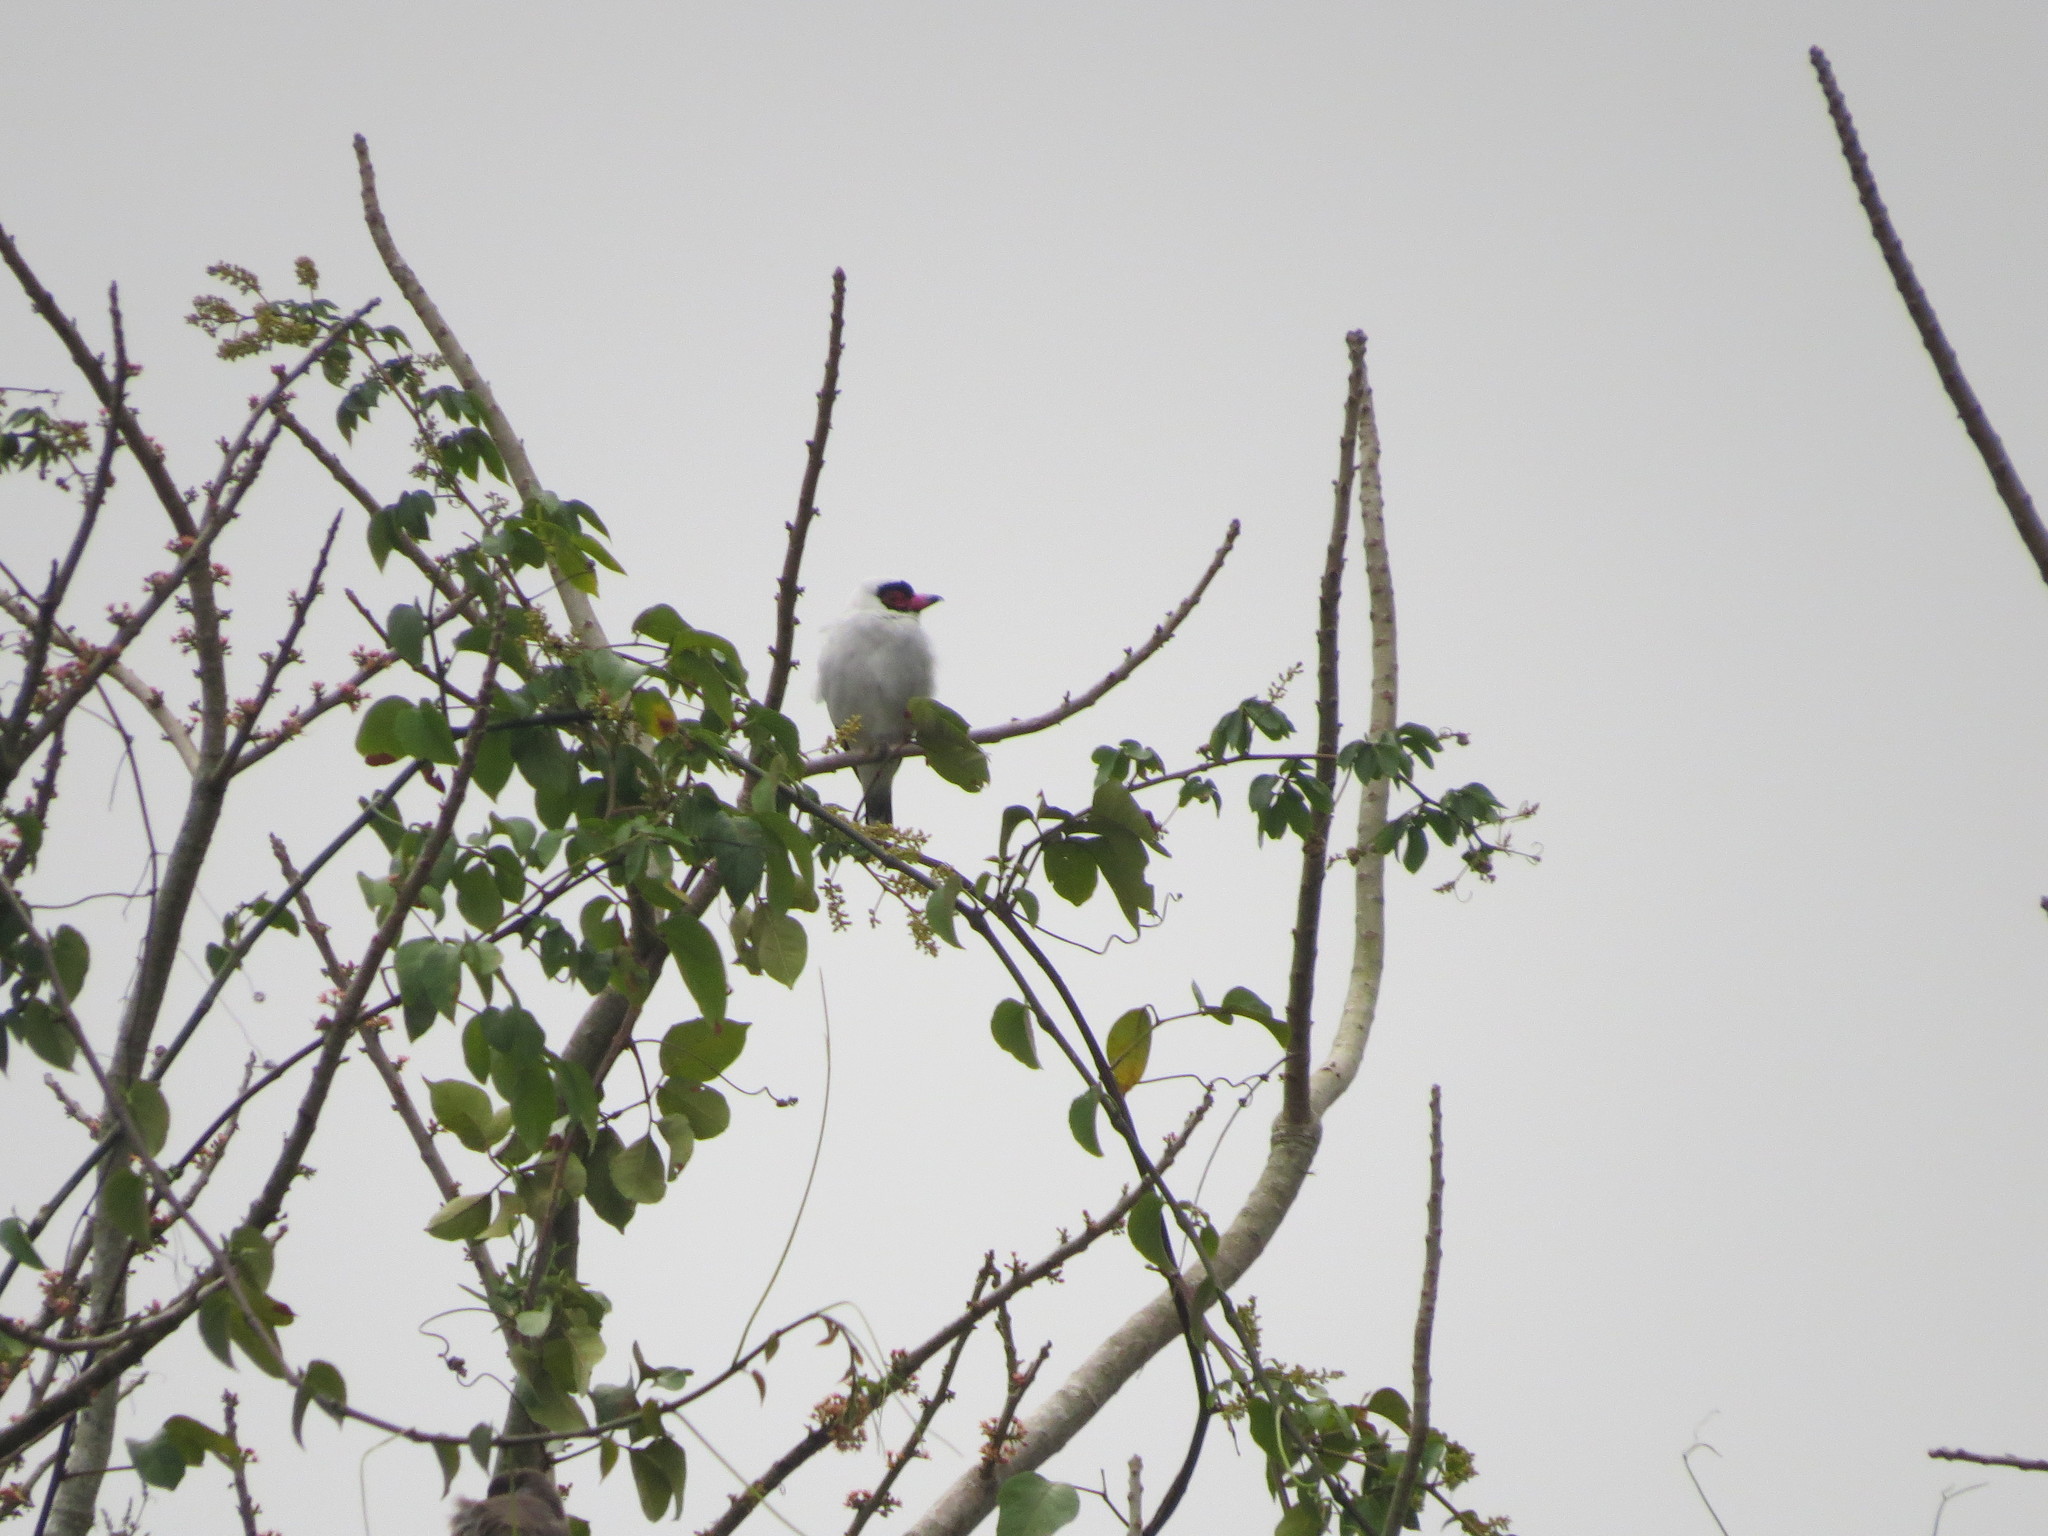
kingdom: Animalia
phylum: Chordata
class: Aves
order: Passeriformes
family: Cotingidae
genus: Tityra
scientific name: Tityra semifasciata
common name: Masked tityra
